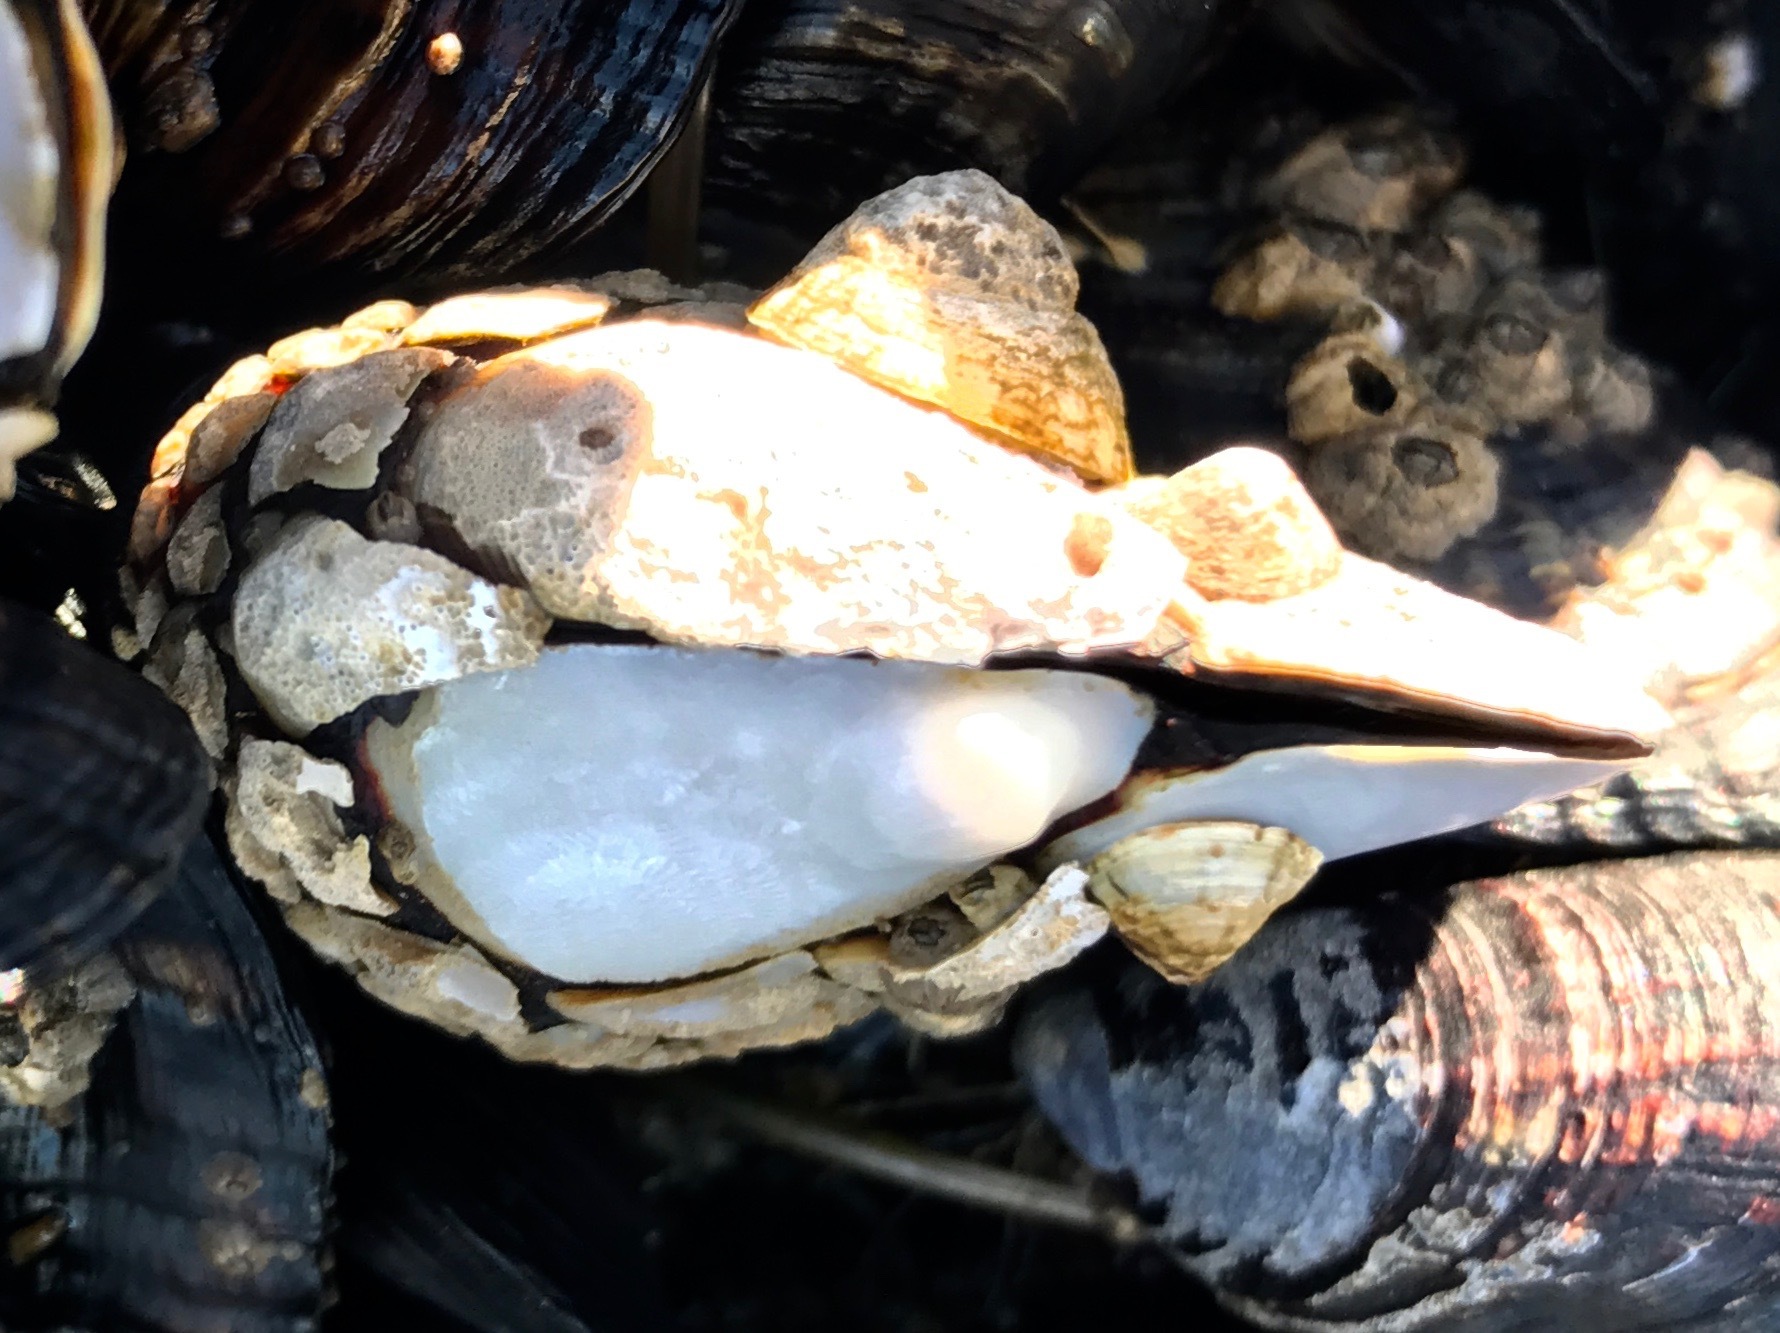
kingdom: Animalia
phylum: Arthropoda
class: Maxillopoda
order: Pedunculata
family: Pollicipedidae
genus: Pollicipes
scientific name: Pollicipes polymerus
